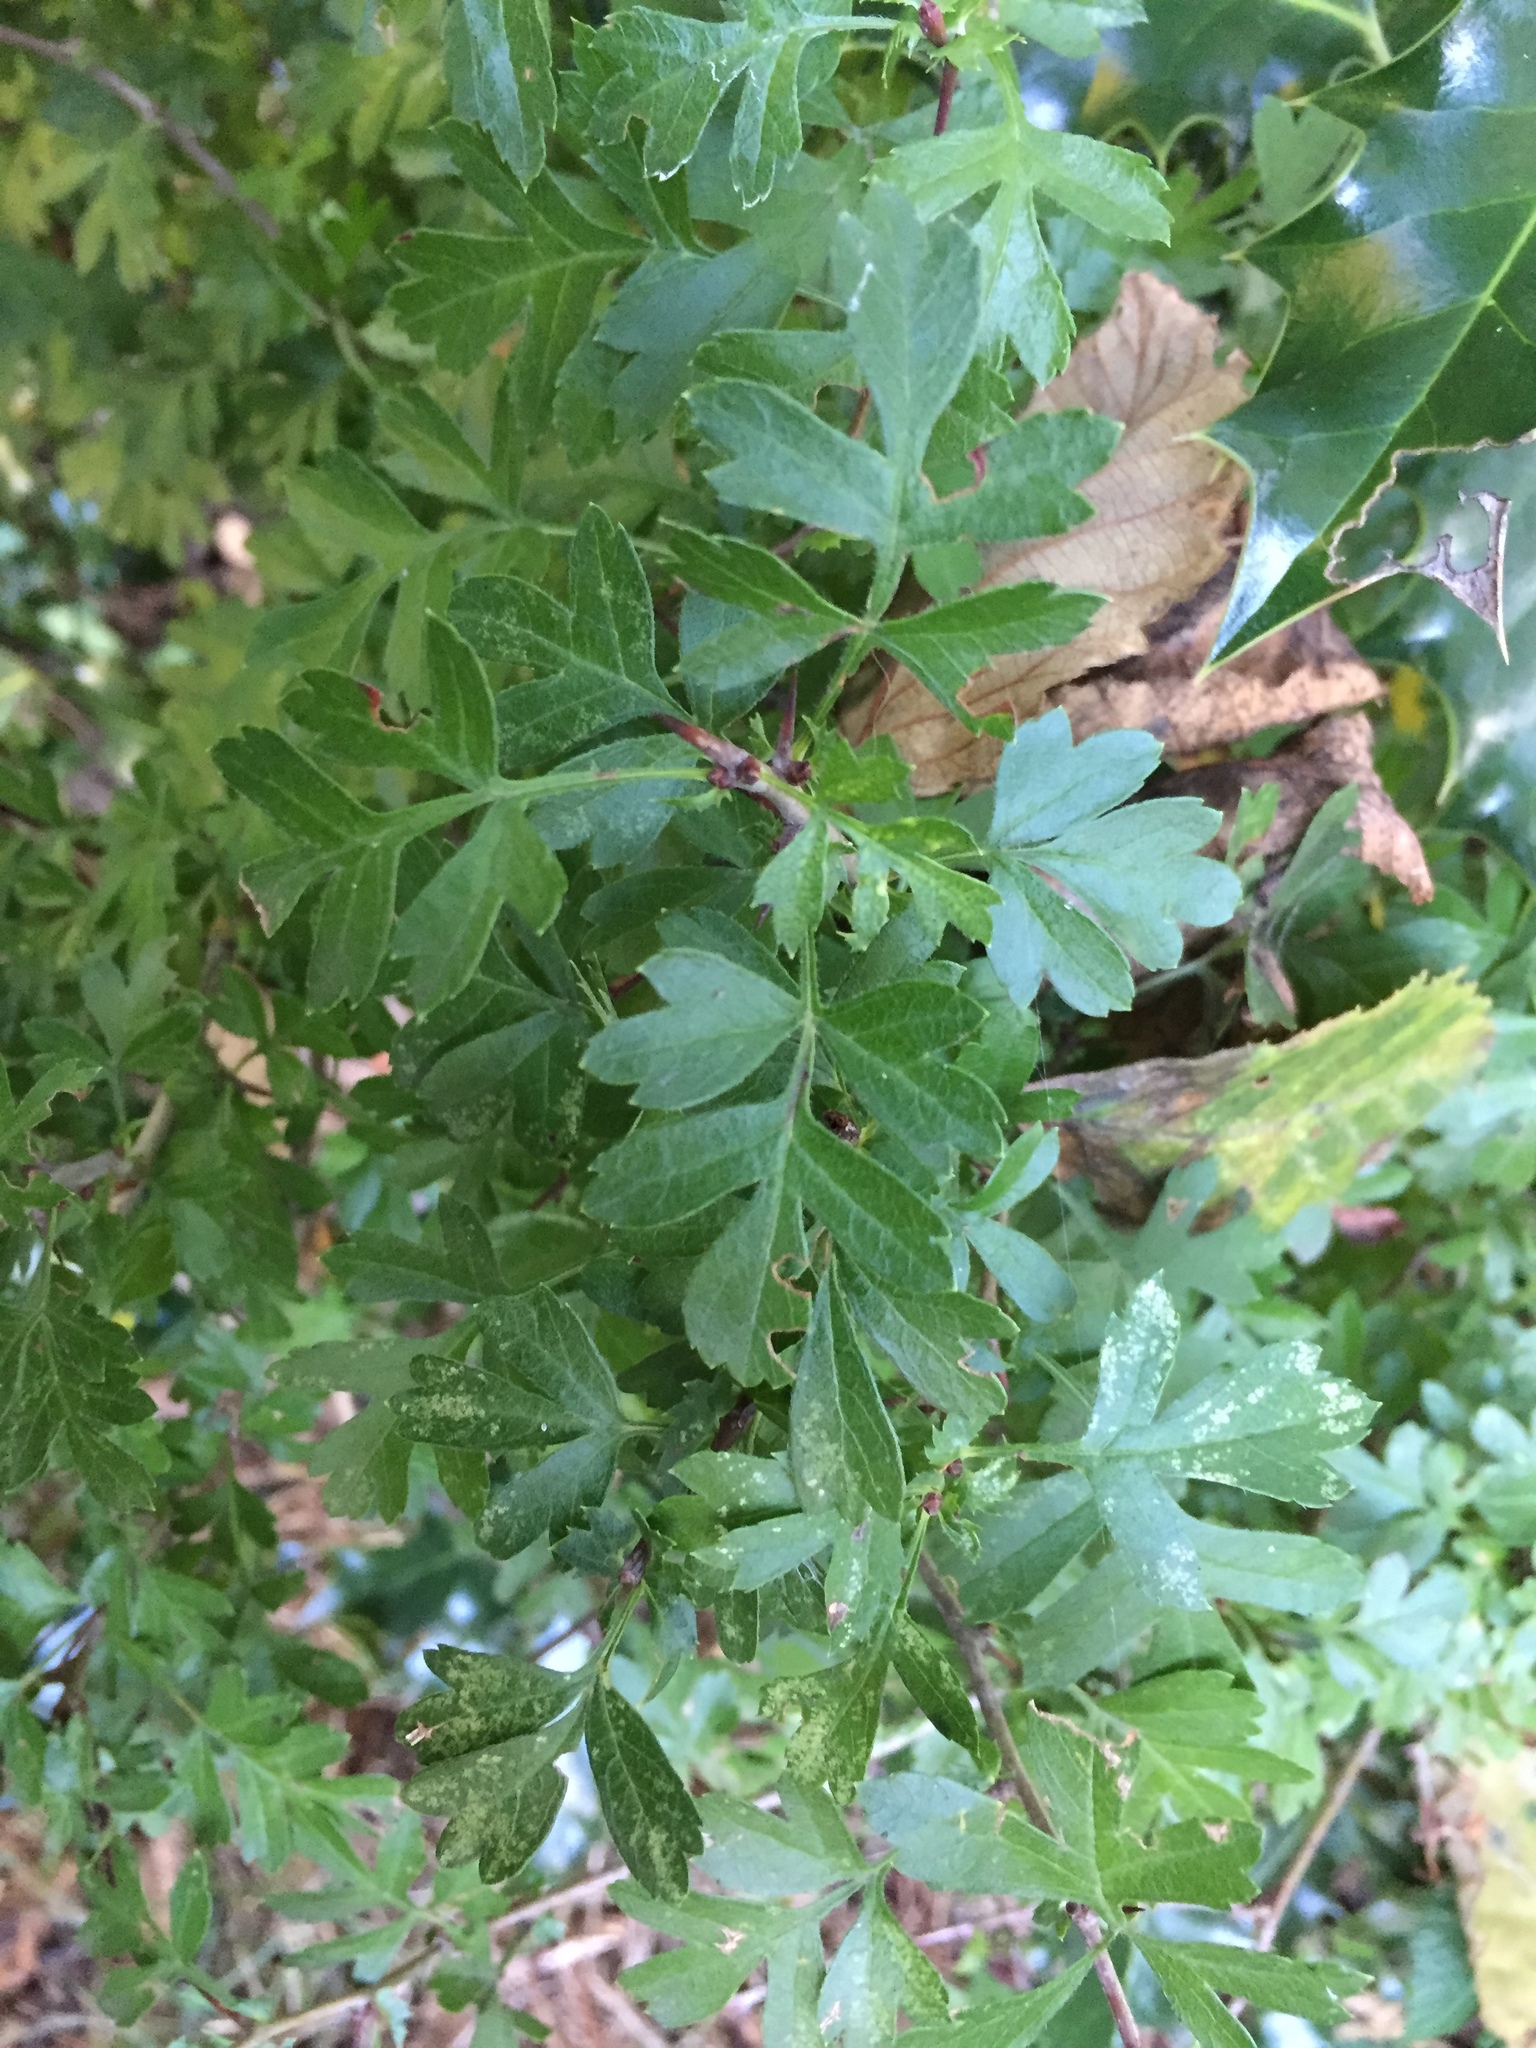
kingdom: Plantae
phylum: Tracheophyta
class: Magnoliopsida
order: Rosales
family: Rosaceae
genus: Crataegus
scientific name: Crataegus monogyna
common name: Hawthorn
